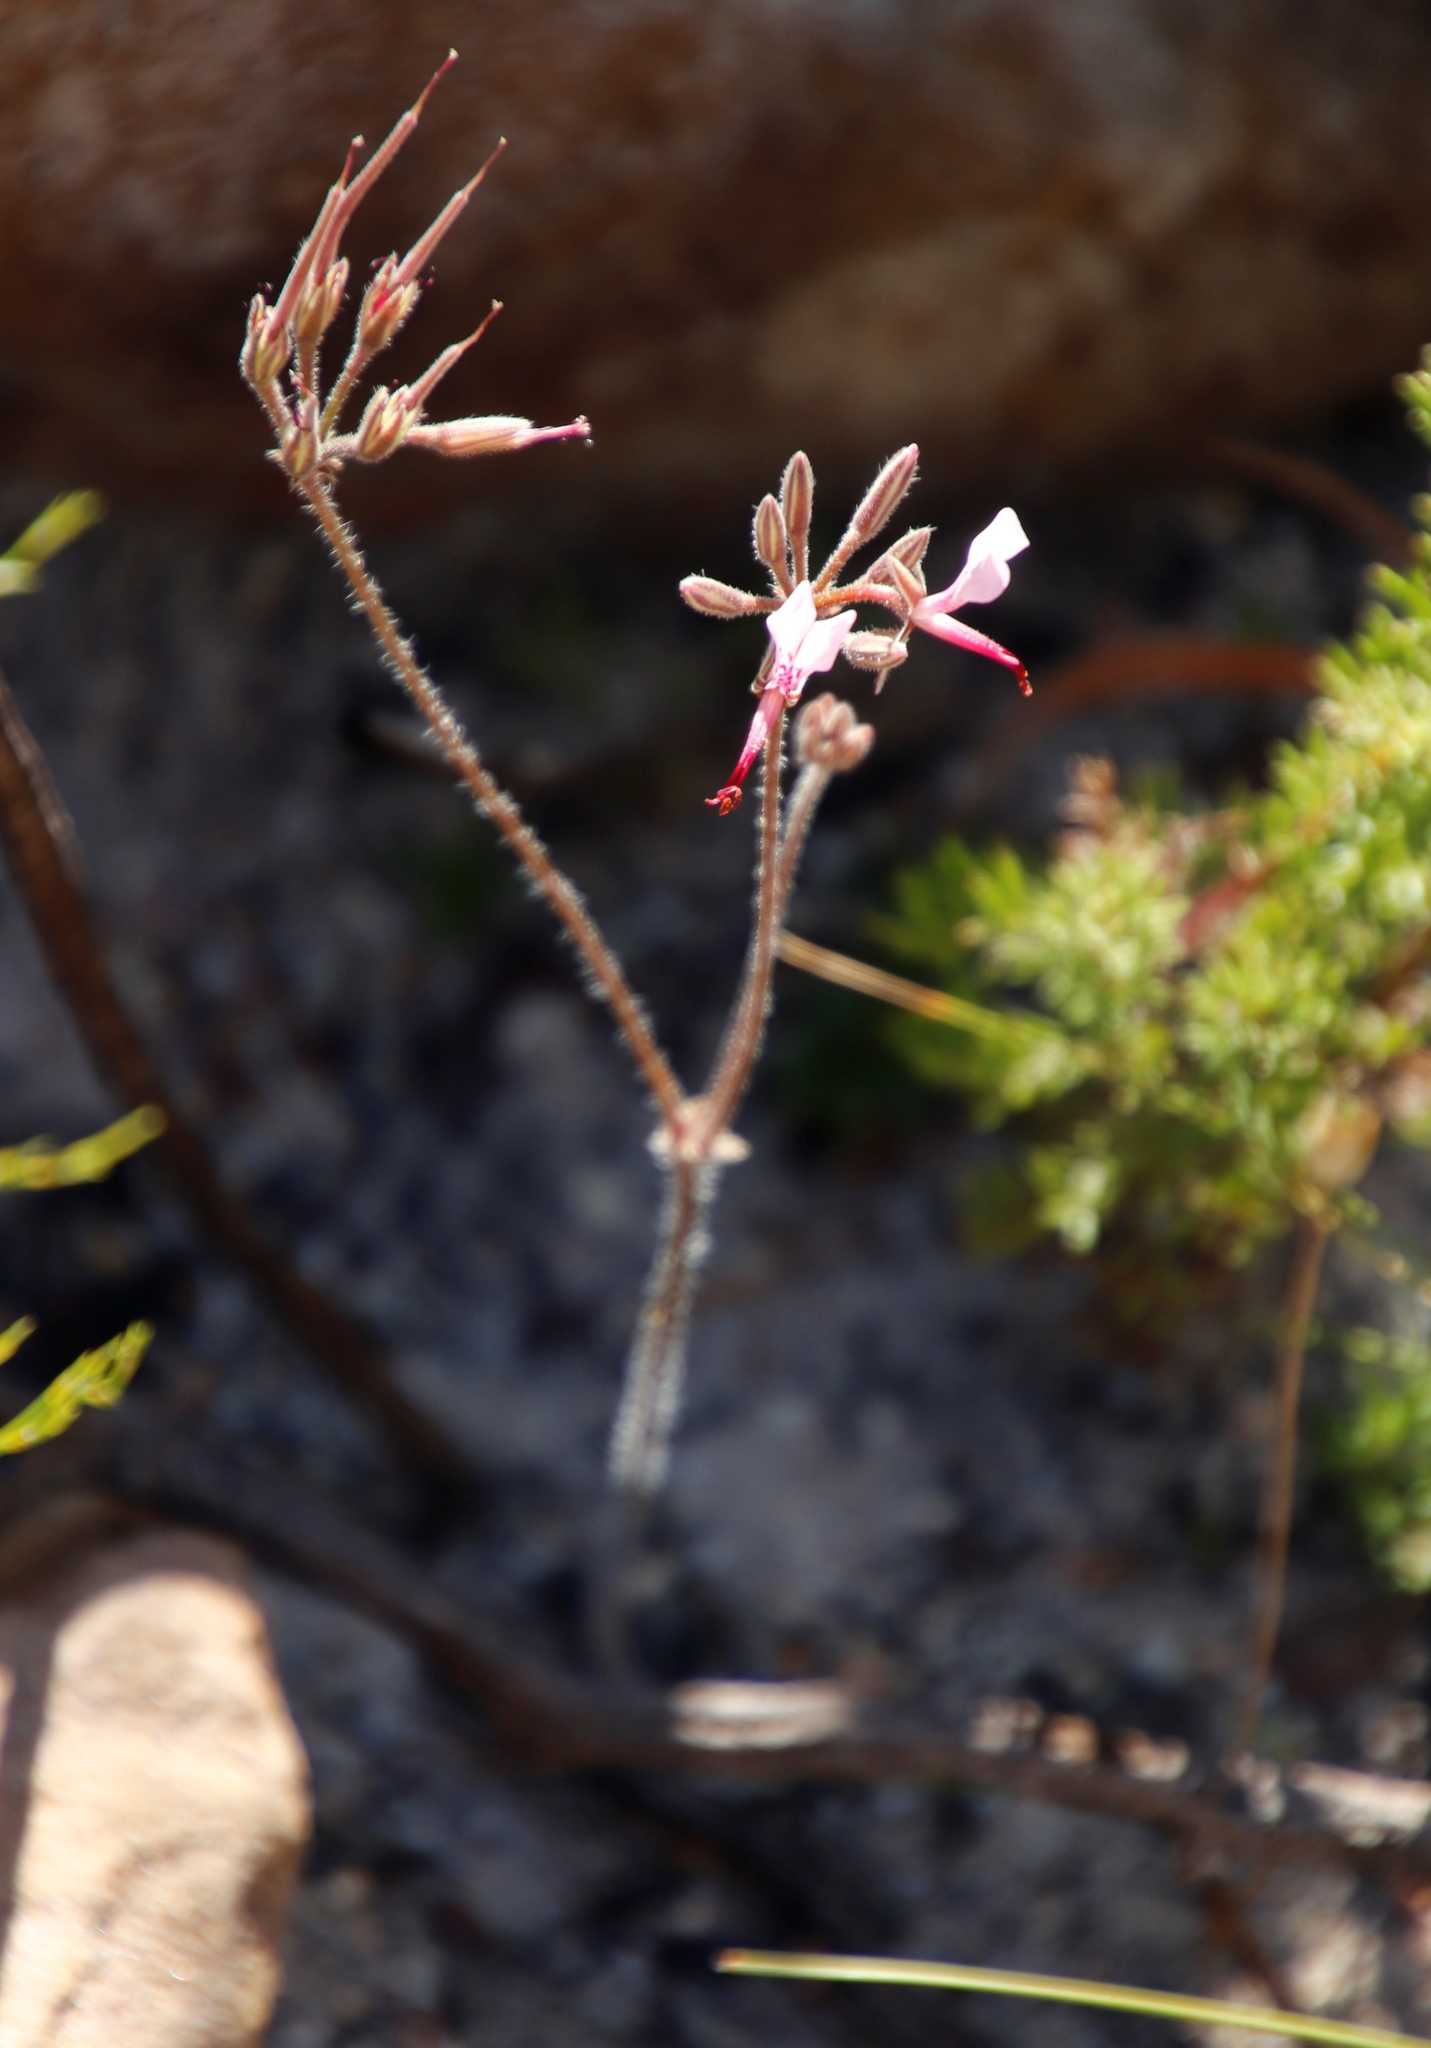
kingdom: Plantae
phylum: Tracheophyta
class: Magnoliopsida
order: Geraniales
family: Geraniaceae
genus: Pelargonium
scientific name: Pelargonium ternifolium
